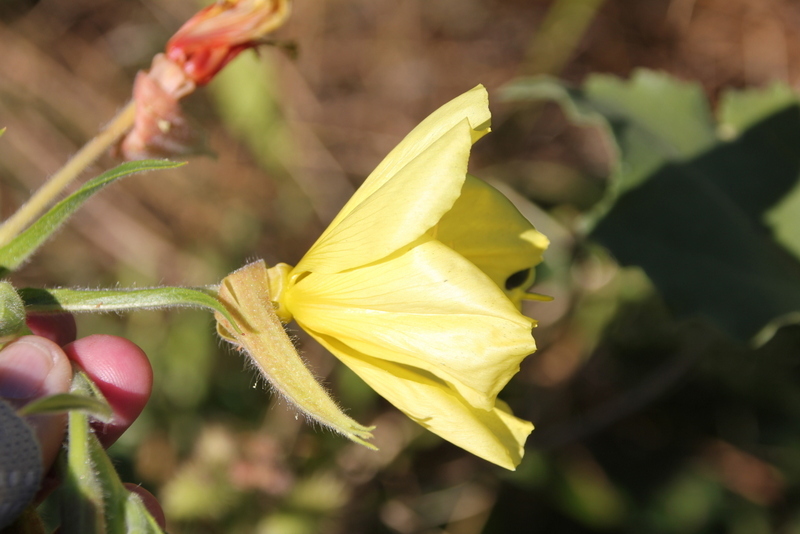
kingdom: Plantae
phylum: Tracheophyta
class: Magnoliopsida
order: Myrtales
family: Onagraceae
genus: Oenothera
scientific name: Oenothera elata
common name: Hooker's evening-primrose
